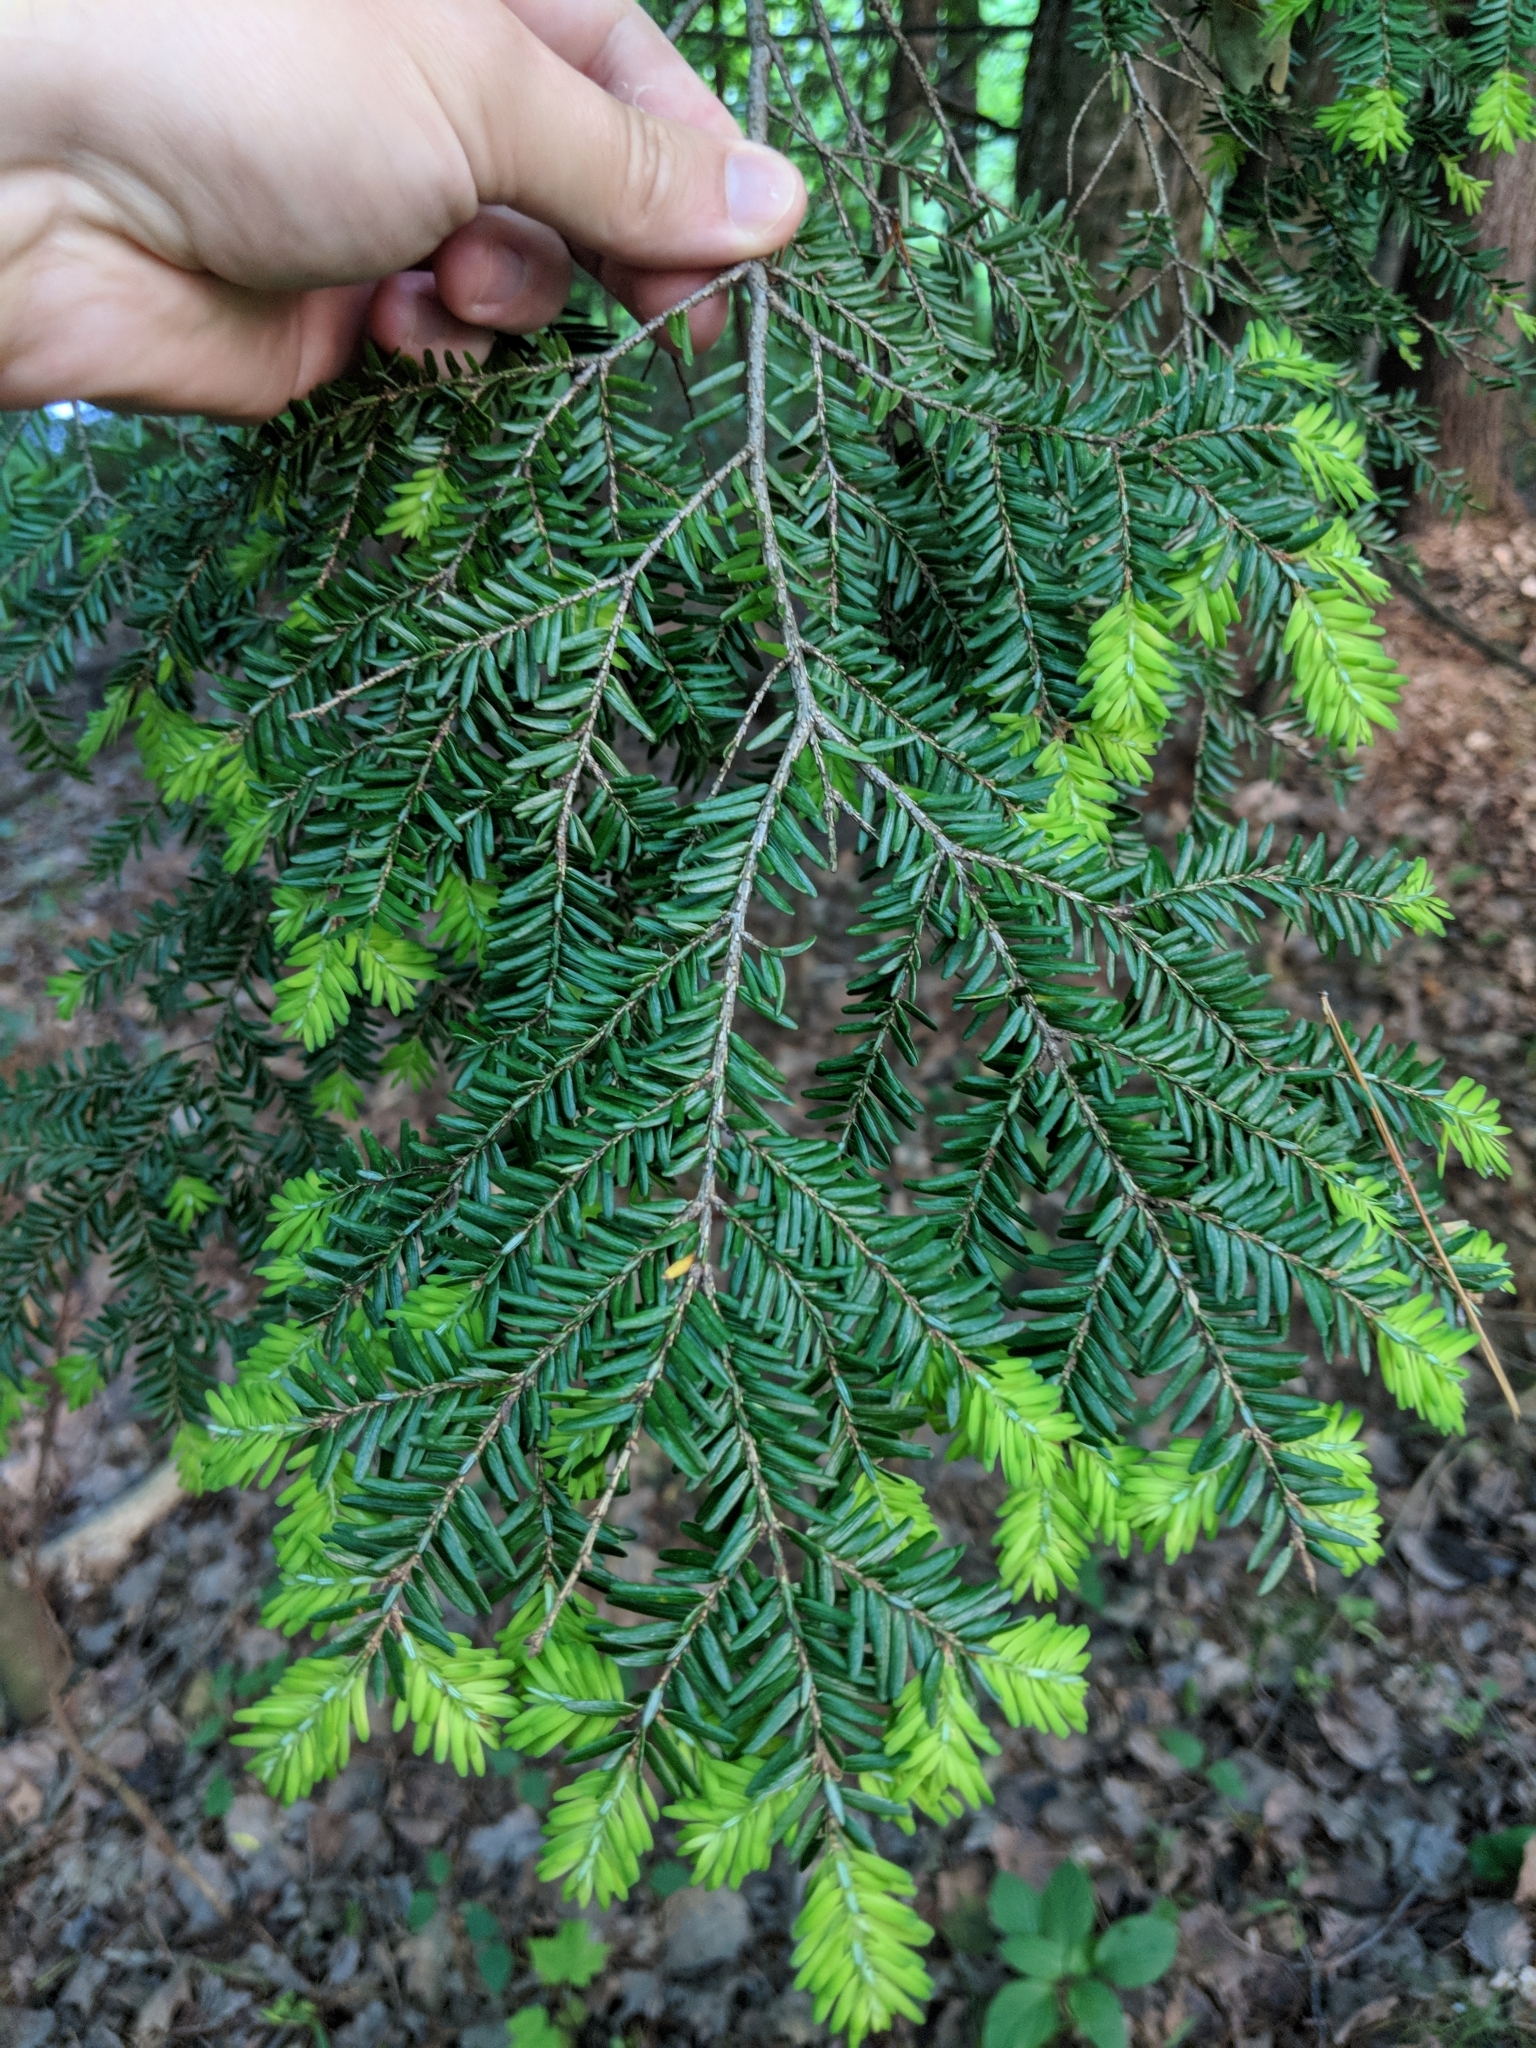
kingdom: Plantae
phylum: Tracheophyta
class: Pinopsida
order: Pinales
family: Pinaceae
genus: Tsuga
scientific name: Tsuga canadensis
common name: Eastern hemlock
